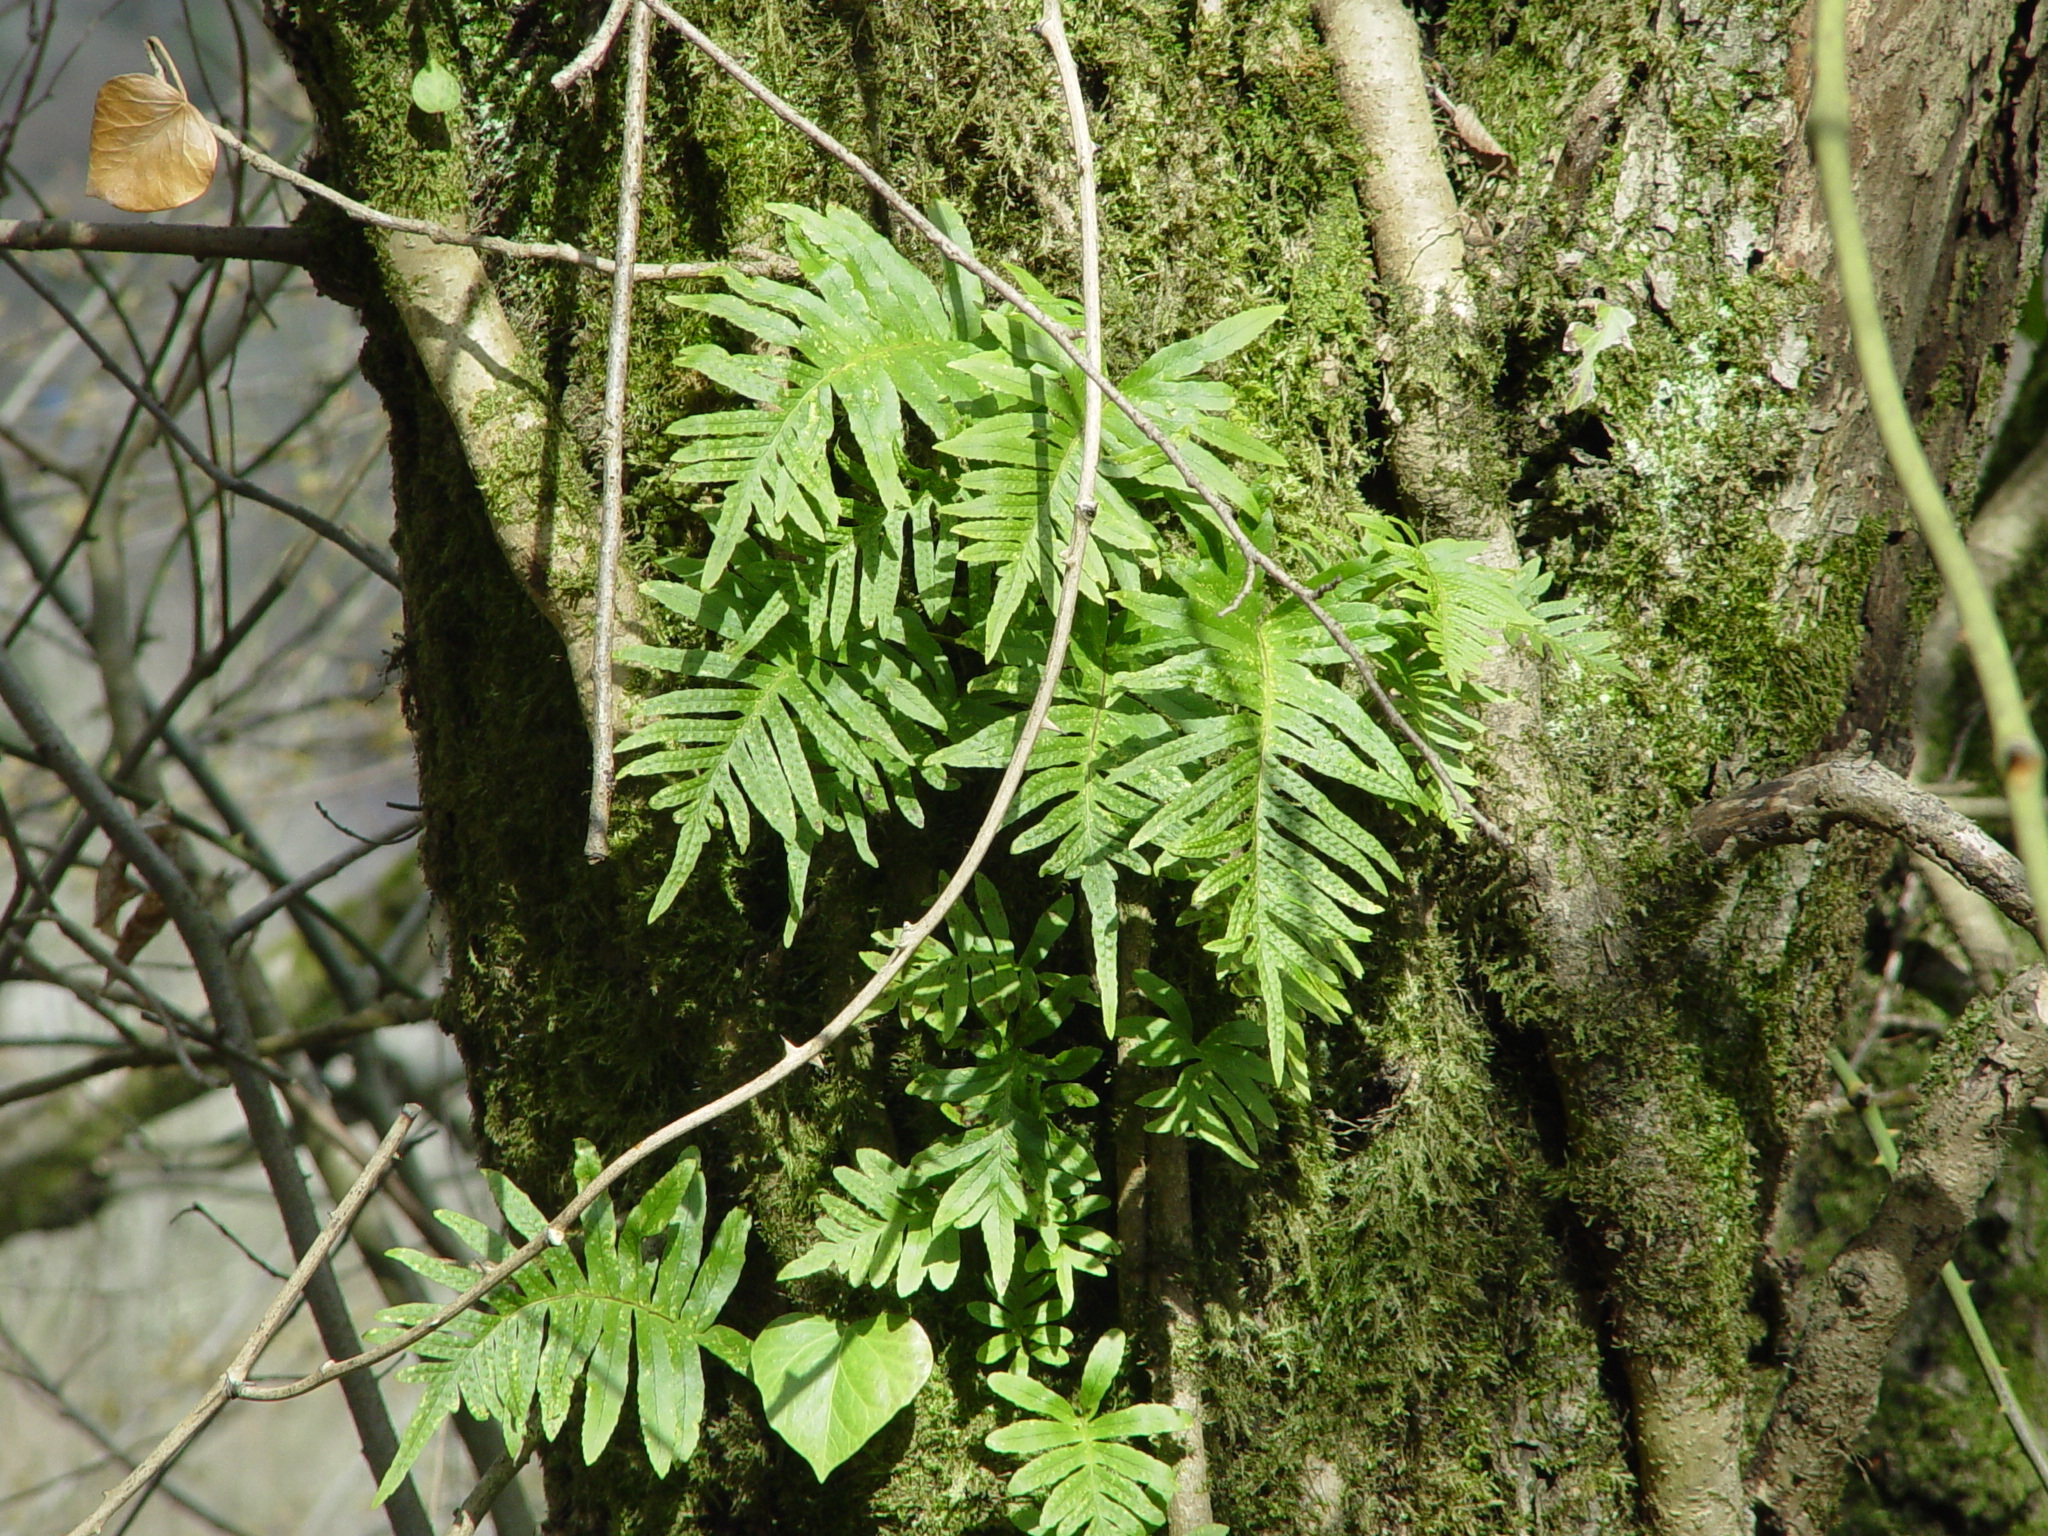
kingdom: Plantae
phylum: Tracheophyta
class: Polypodiopsida
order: Polypodiales
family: Polypodiaceae
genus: Polypodium
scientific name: Polypodium cambricum
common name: Southern polypody
